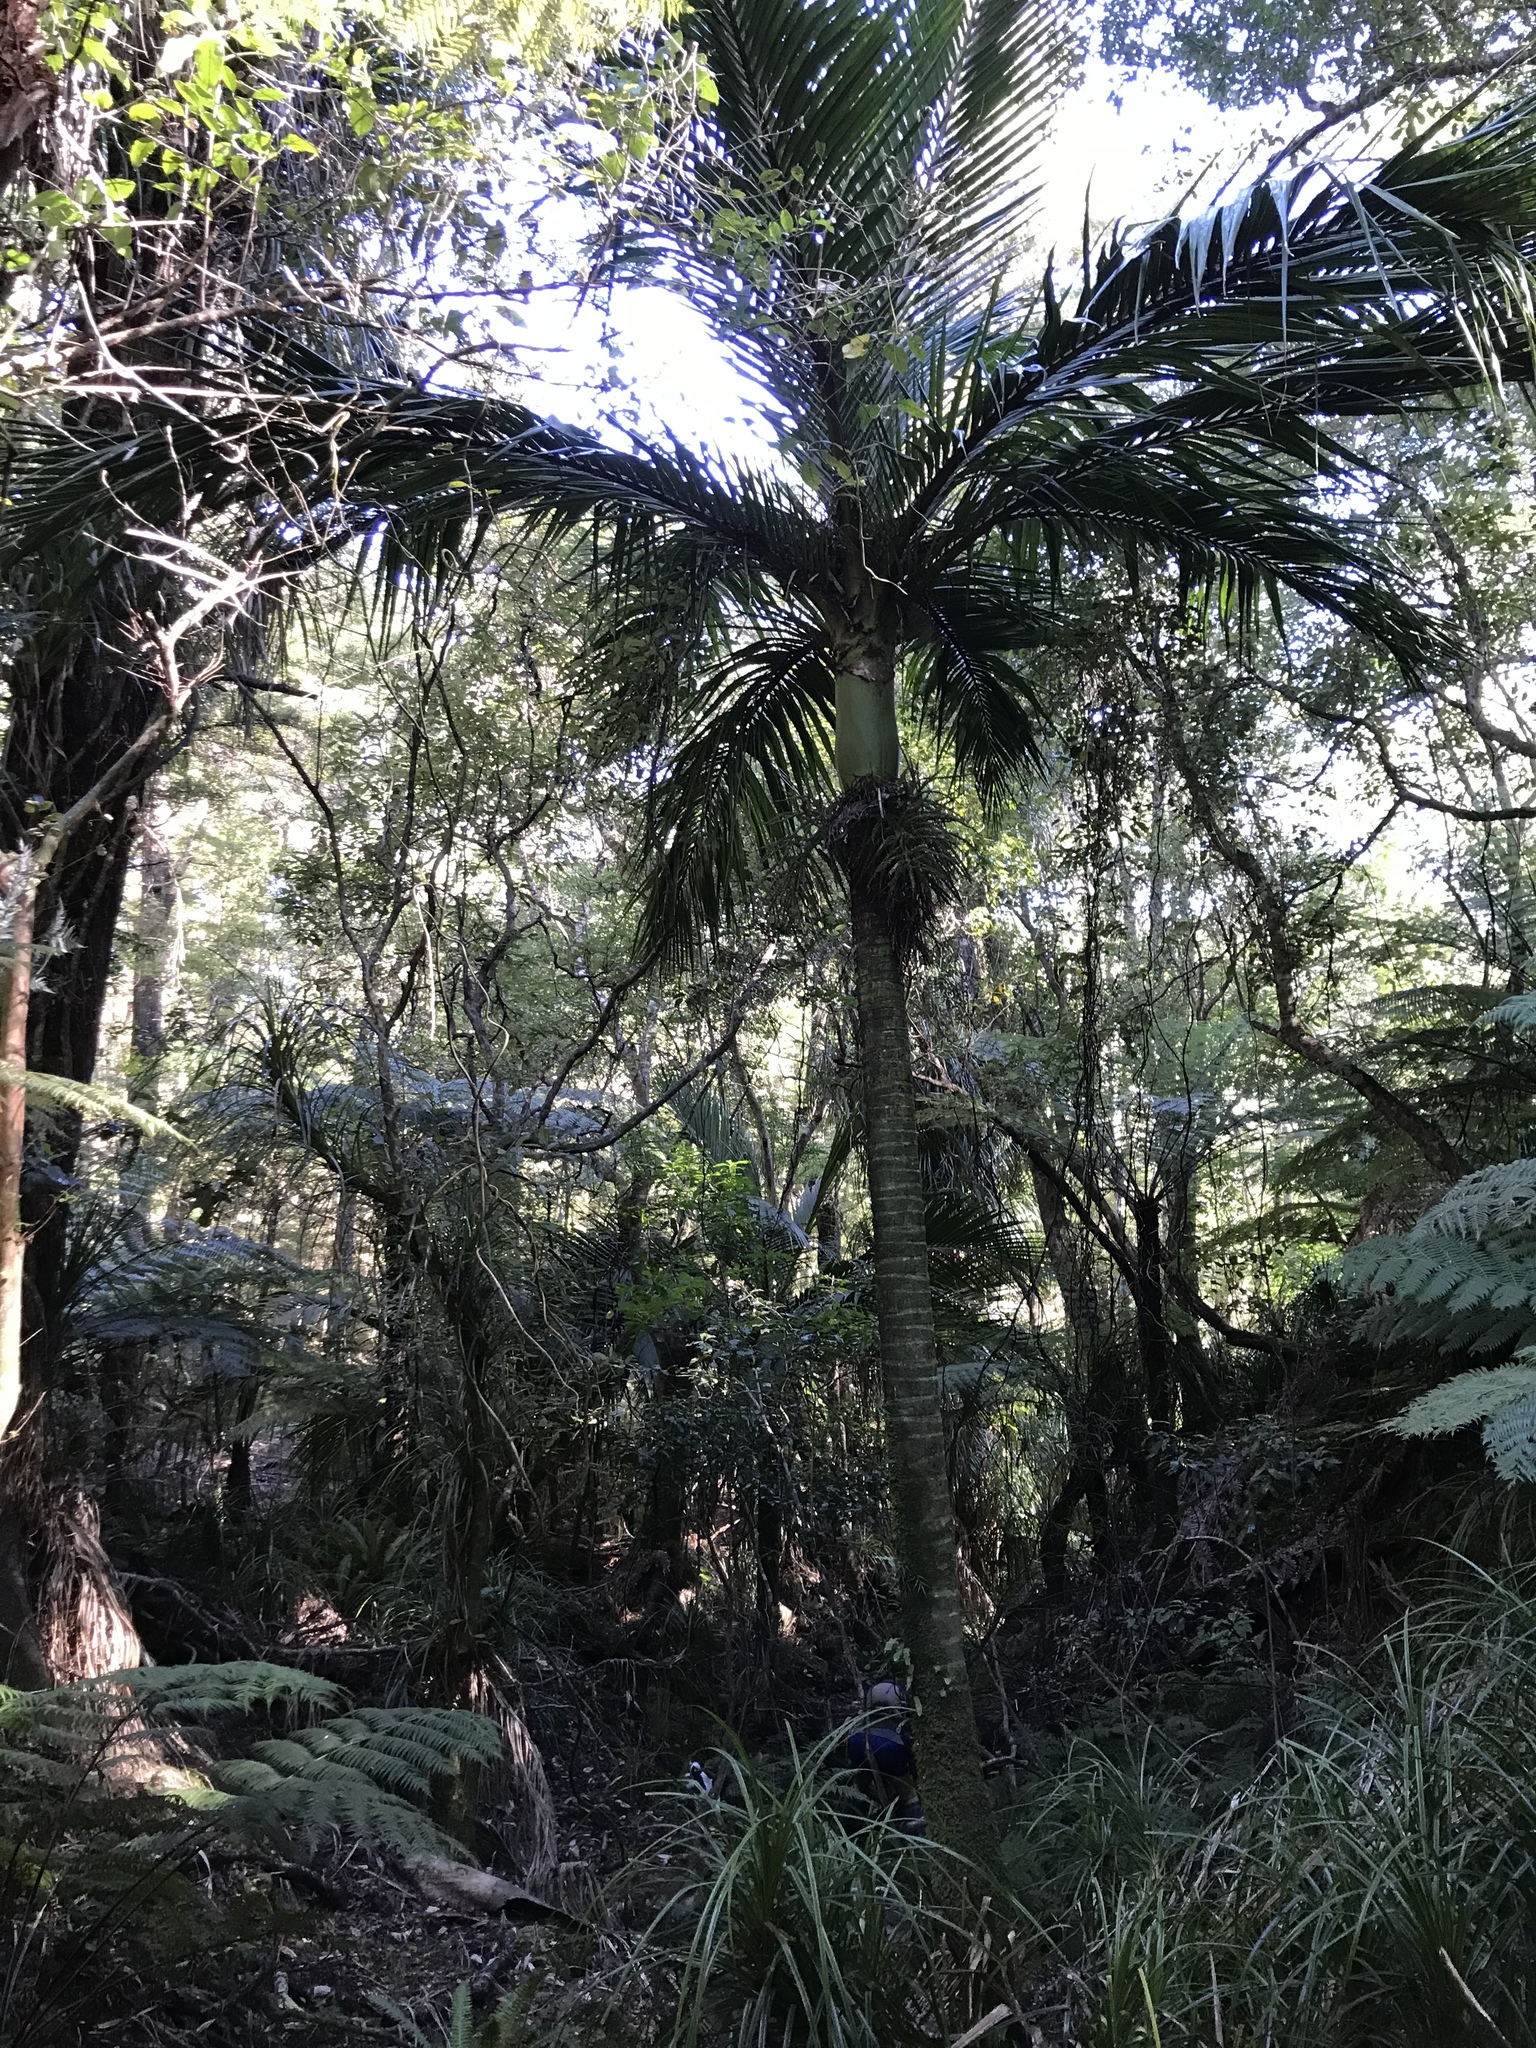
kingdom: Plantae
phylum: Tracheophyta
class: Liliopsida
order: Arecales
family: Arecaceae
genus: Rhopalostylis
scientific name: Rhopalostylis sapida
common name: Feather-duster palm
